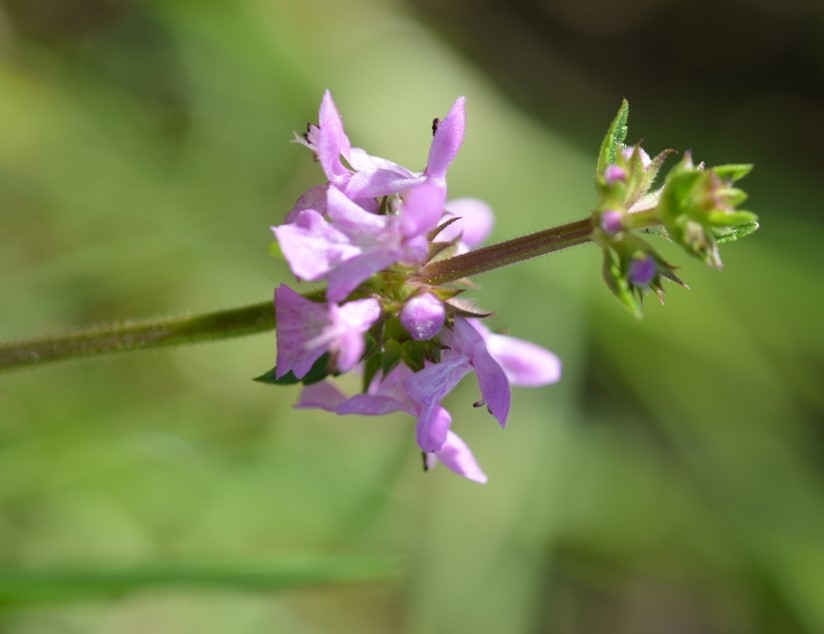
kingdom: Plantae
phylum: Tracheophyta
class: Magnoliopsida
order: Lamiales
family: Lamiaceae
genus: Stachys
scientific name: Stachys harleyana
